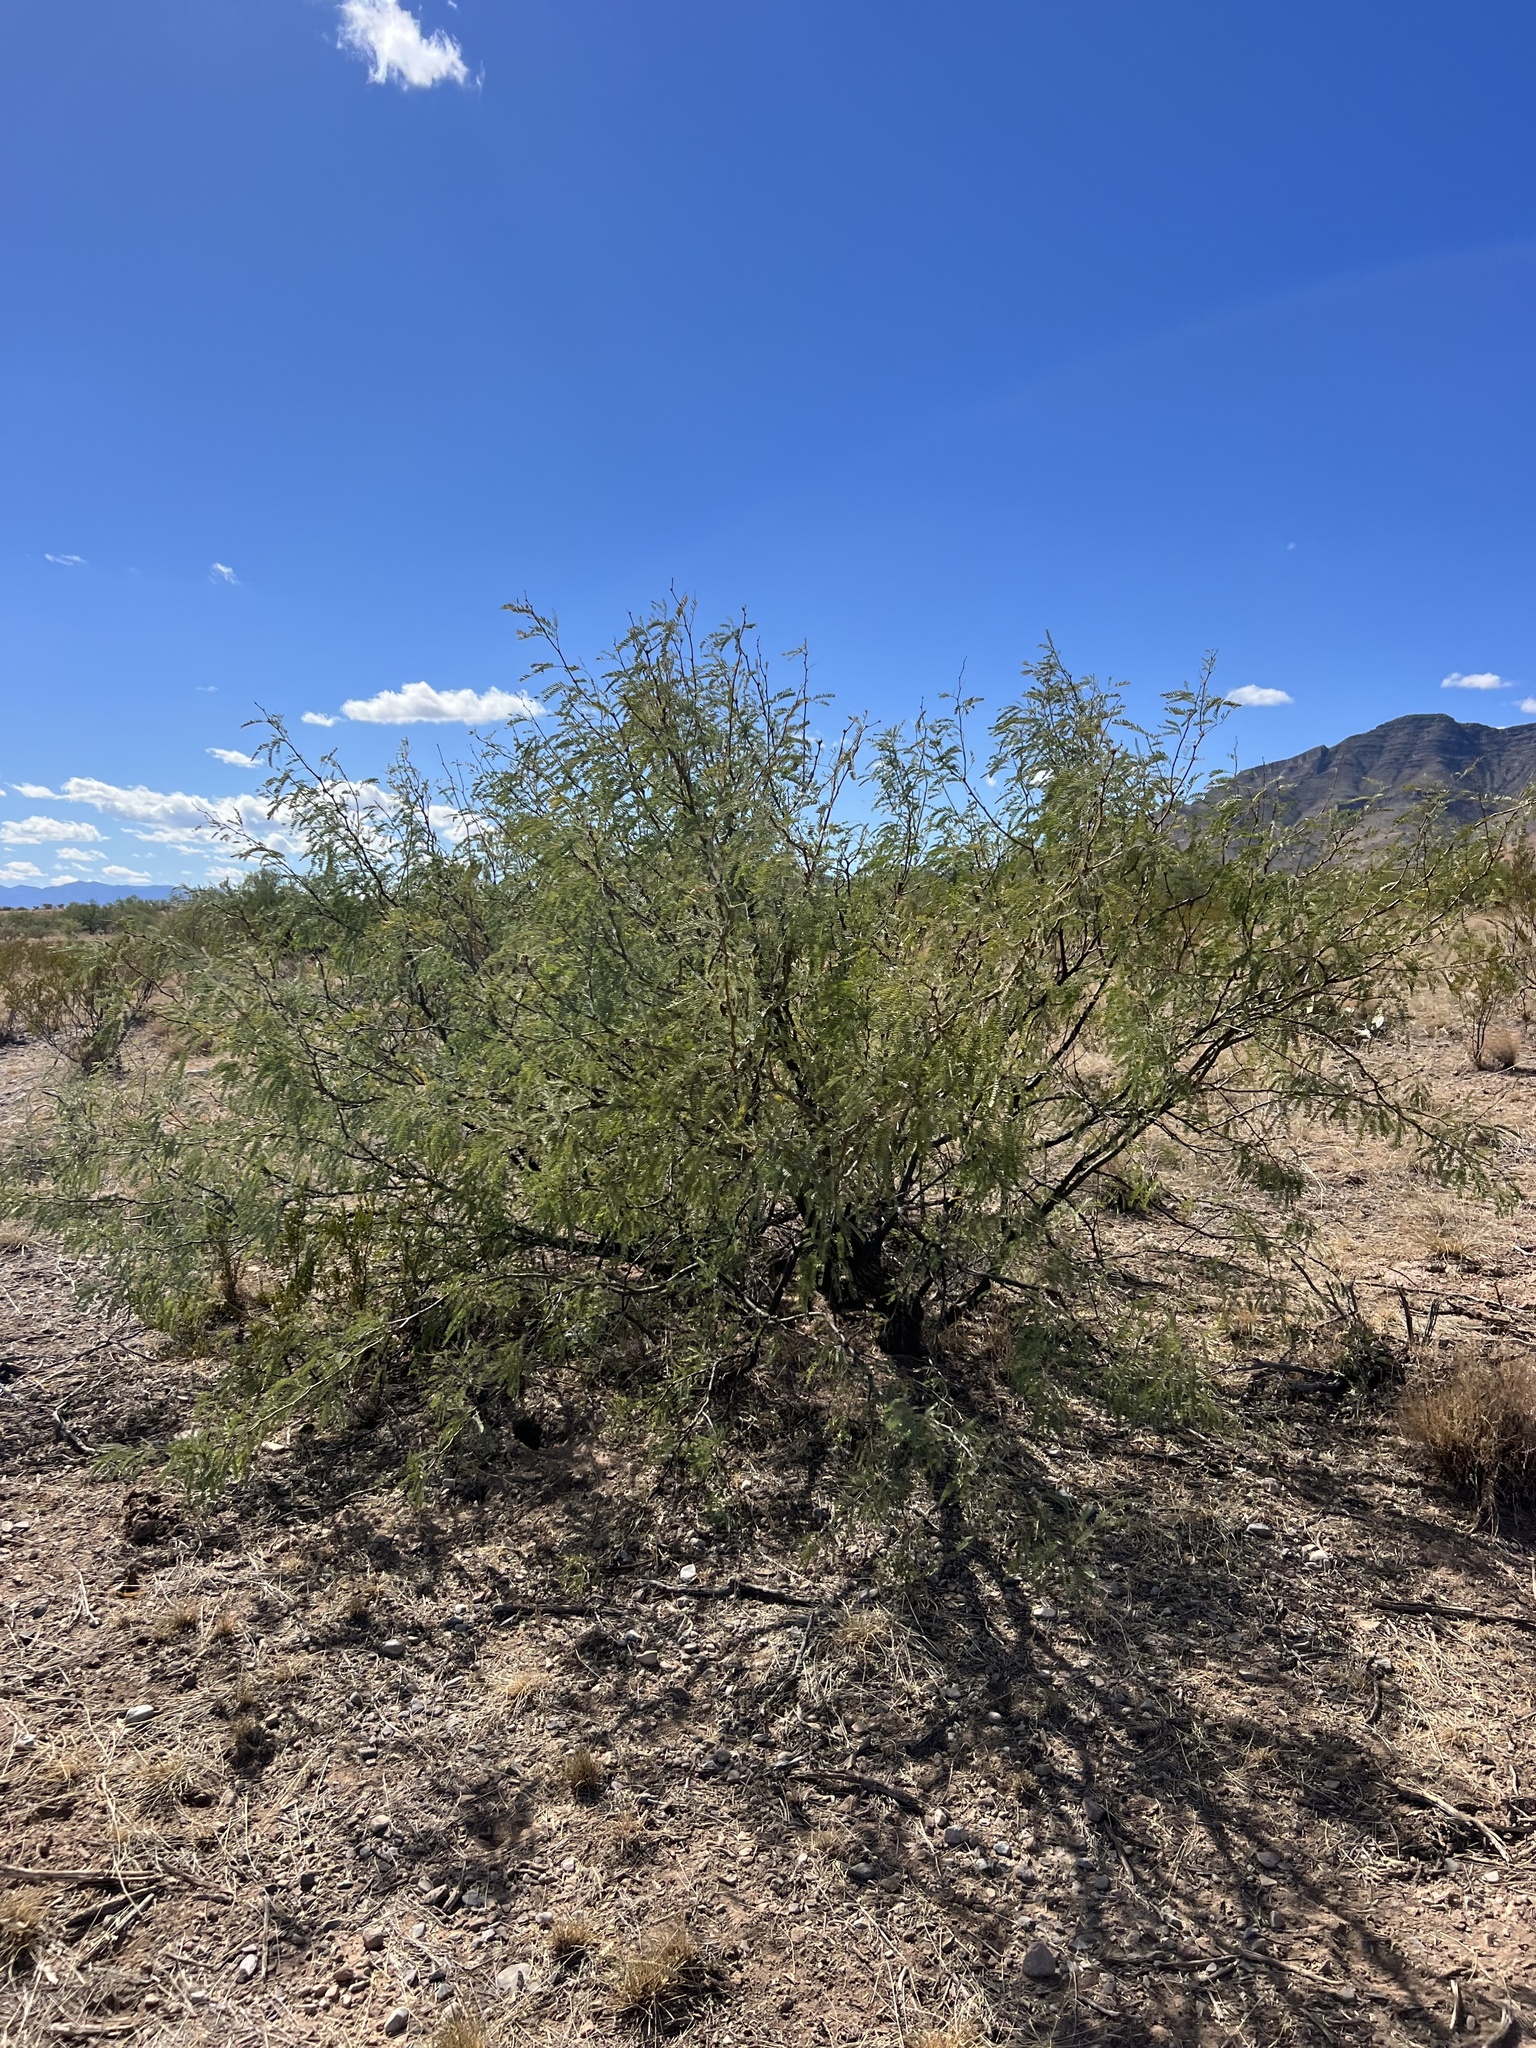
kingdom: Plantae
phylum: Tracheophyta
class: Magnoliopsida
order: Fabales
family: Fabaceae
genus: Prosopis
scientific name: Prosopis velutina
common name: Velvet mesquite
